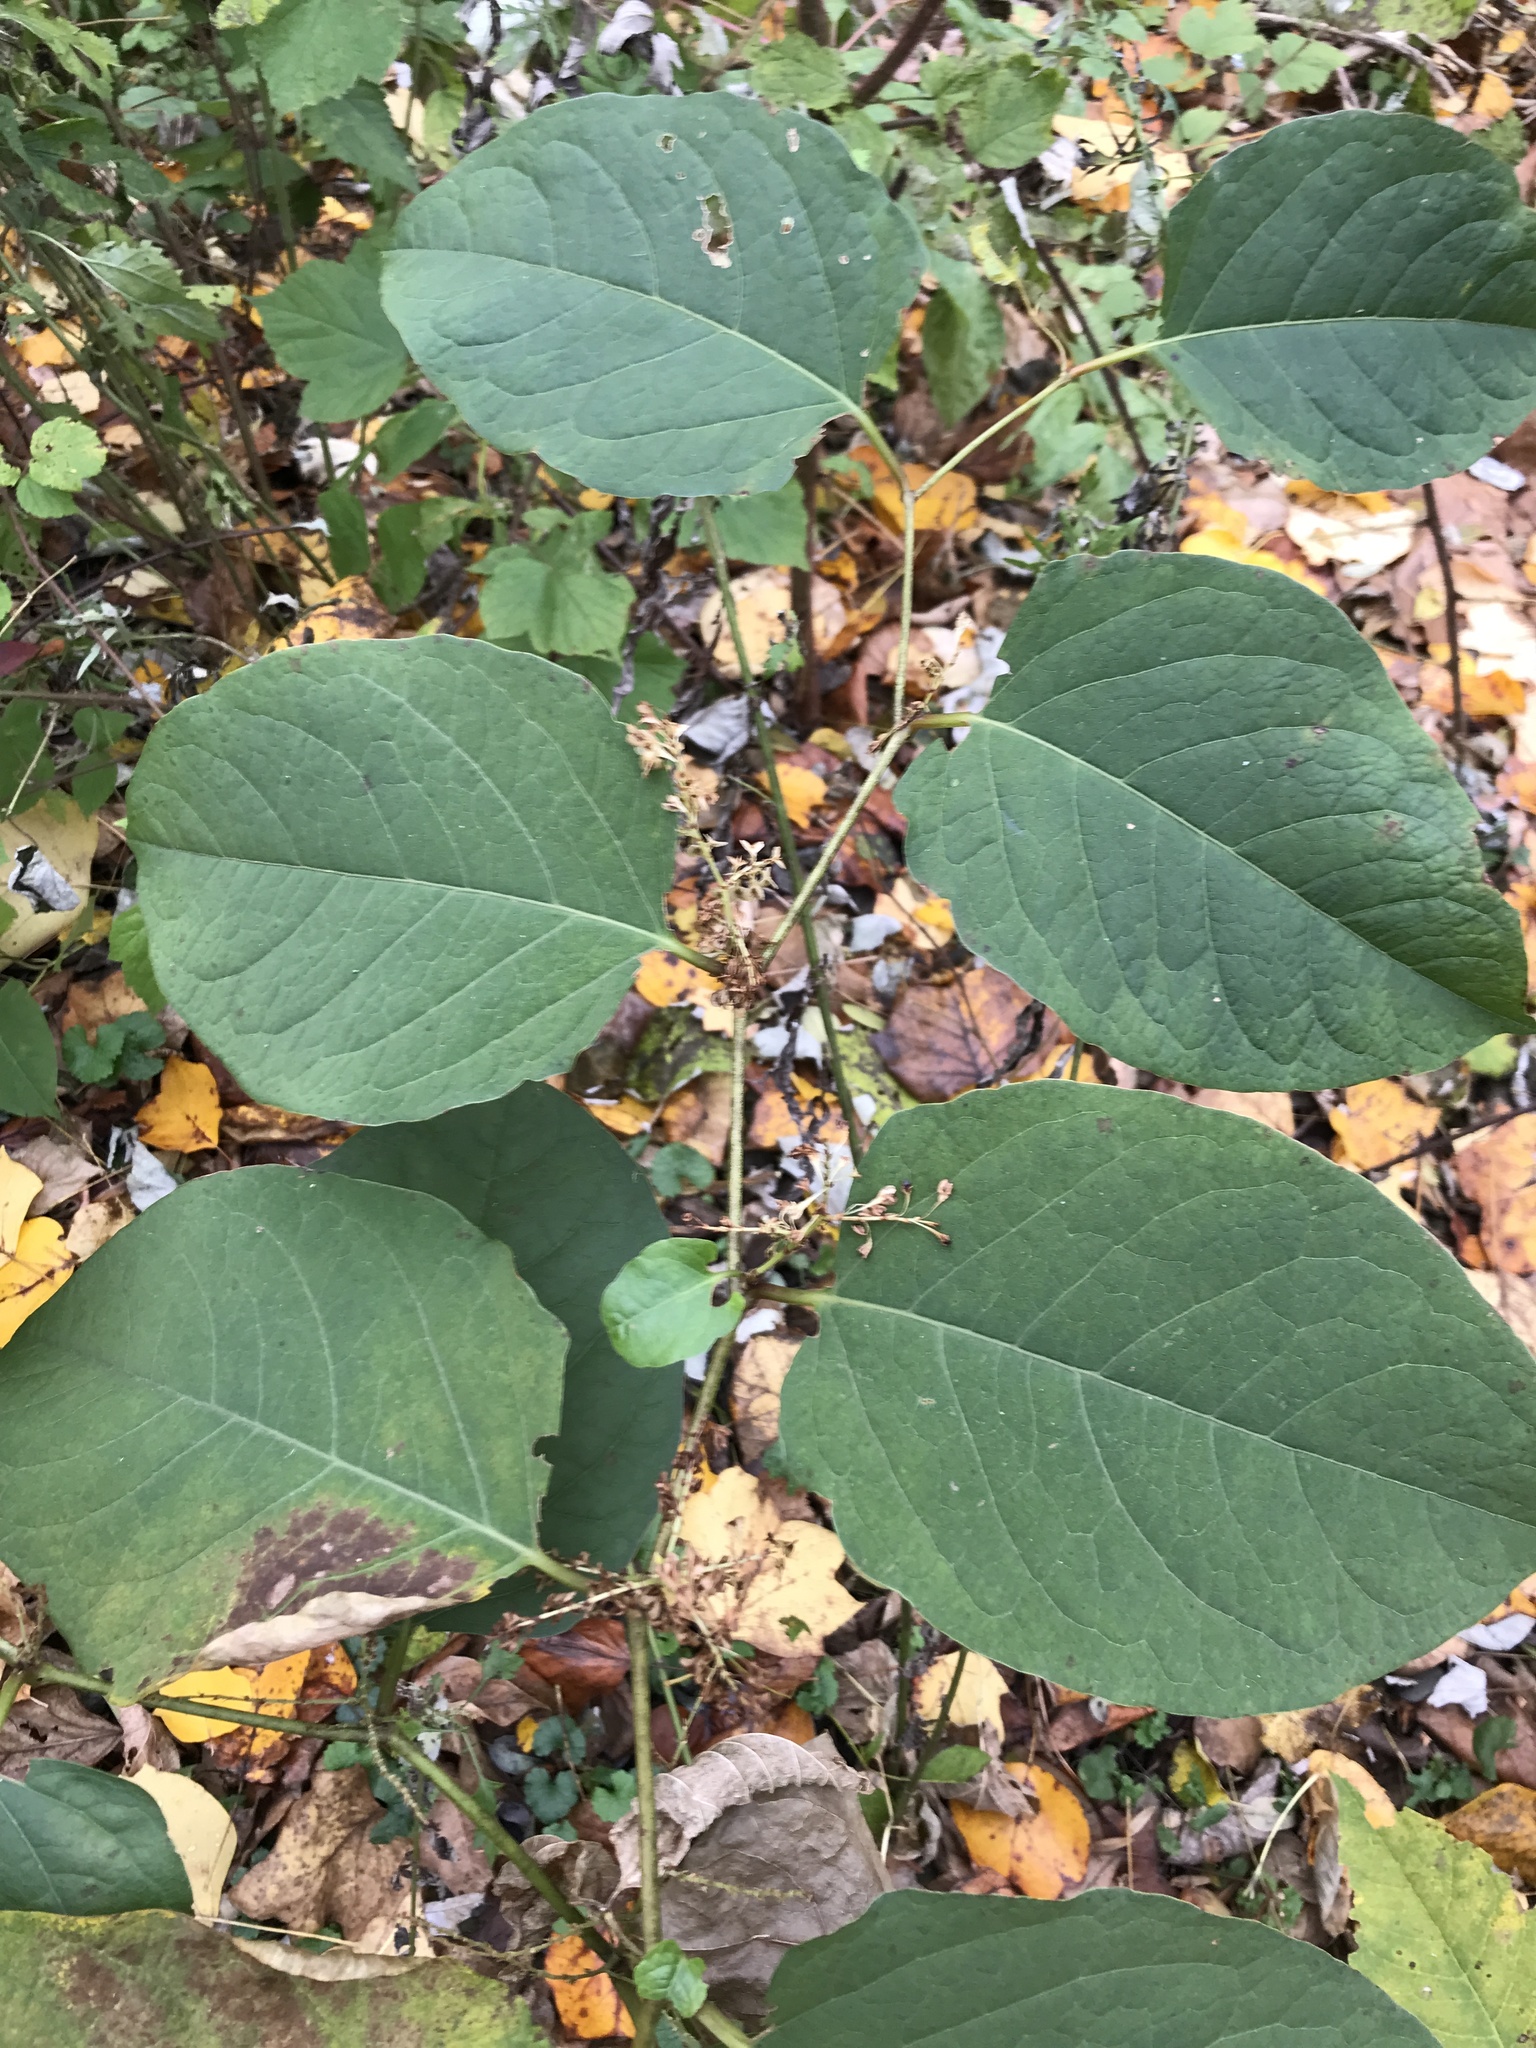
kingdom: Plantae
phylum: Tracheophyta
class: Magnoliopsida
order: Caryophyllales
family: Polygonaceae
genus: Reynoutria
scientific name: Reynoutria japonica
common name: Japanese knotweed
